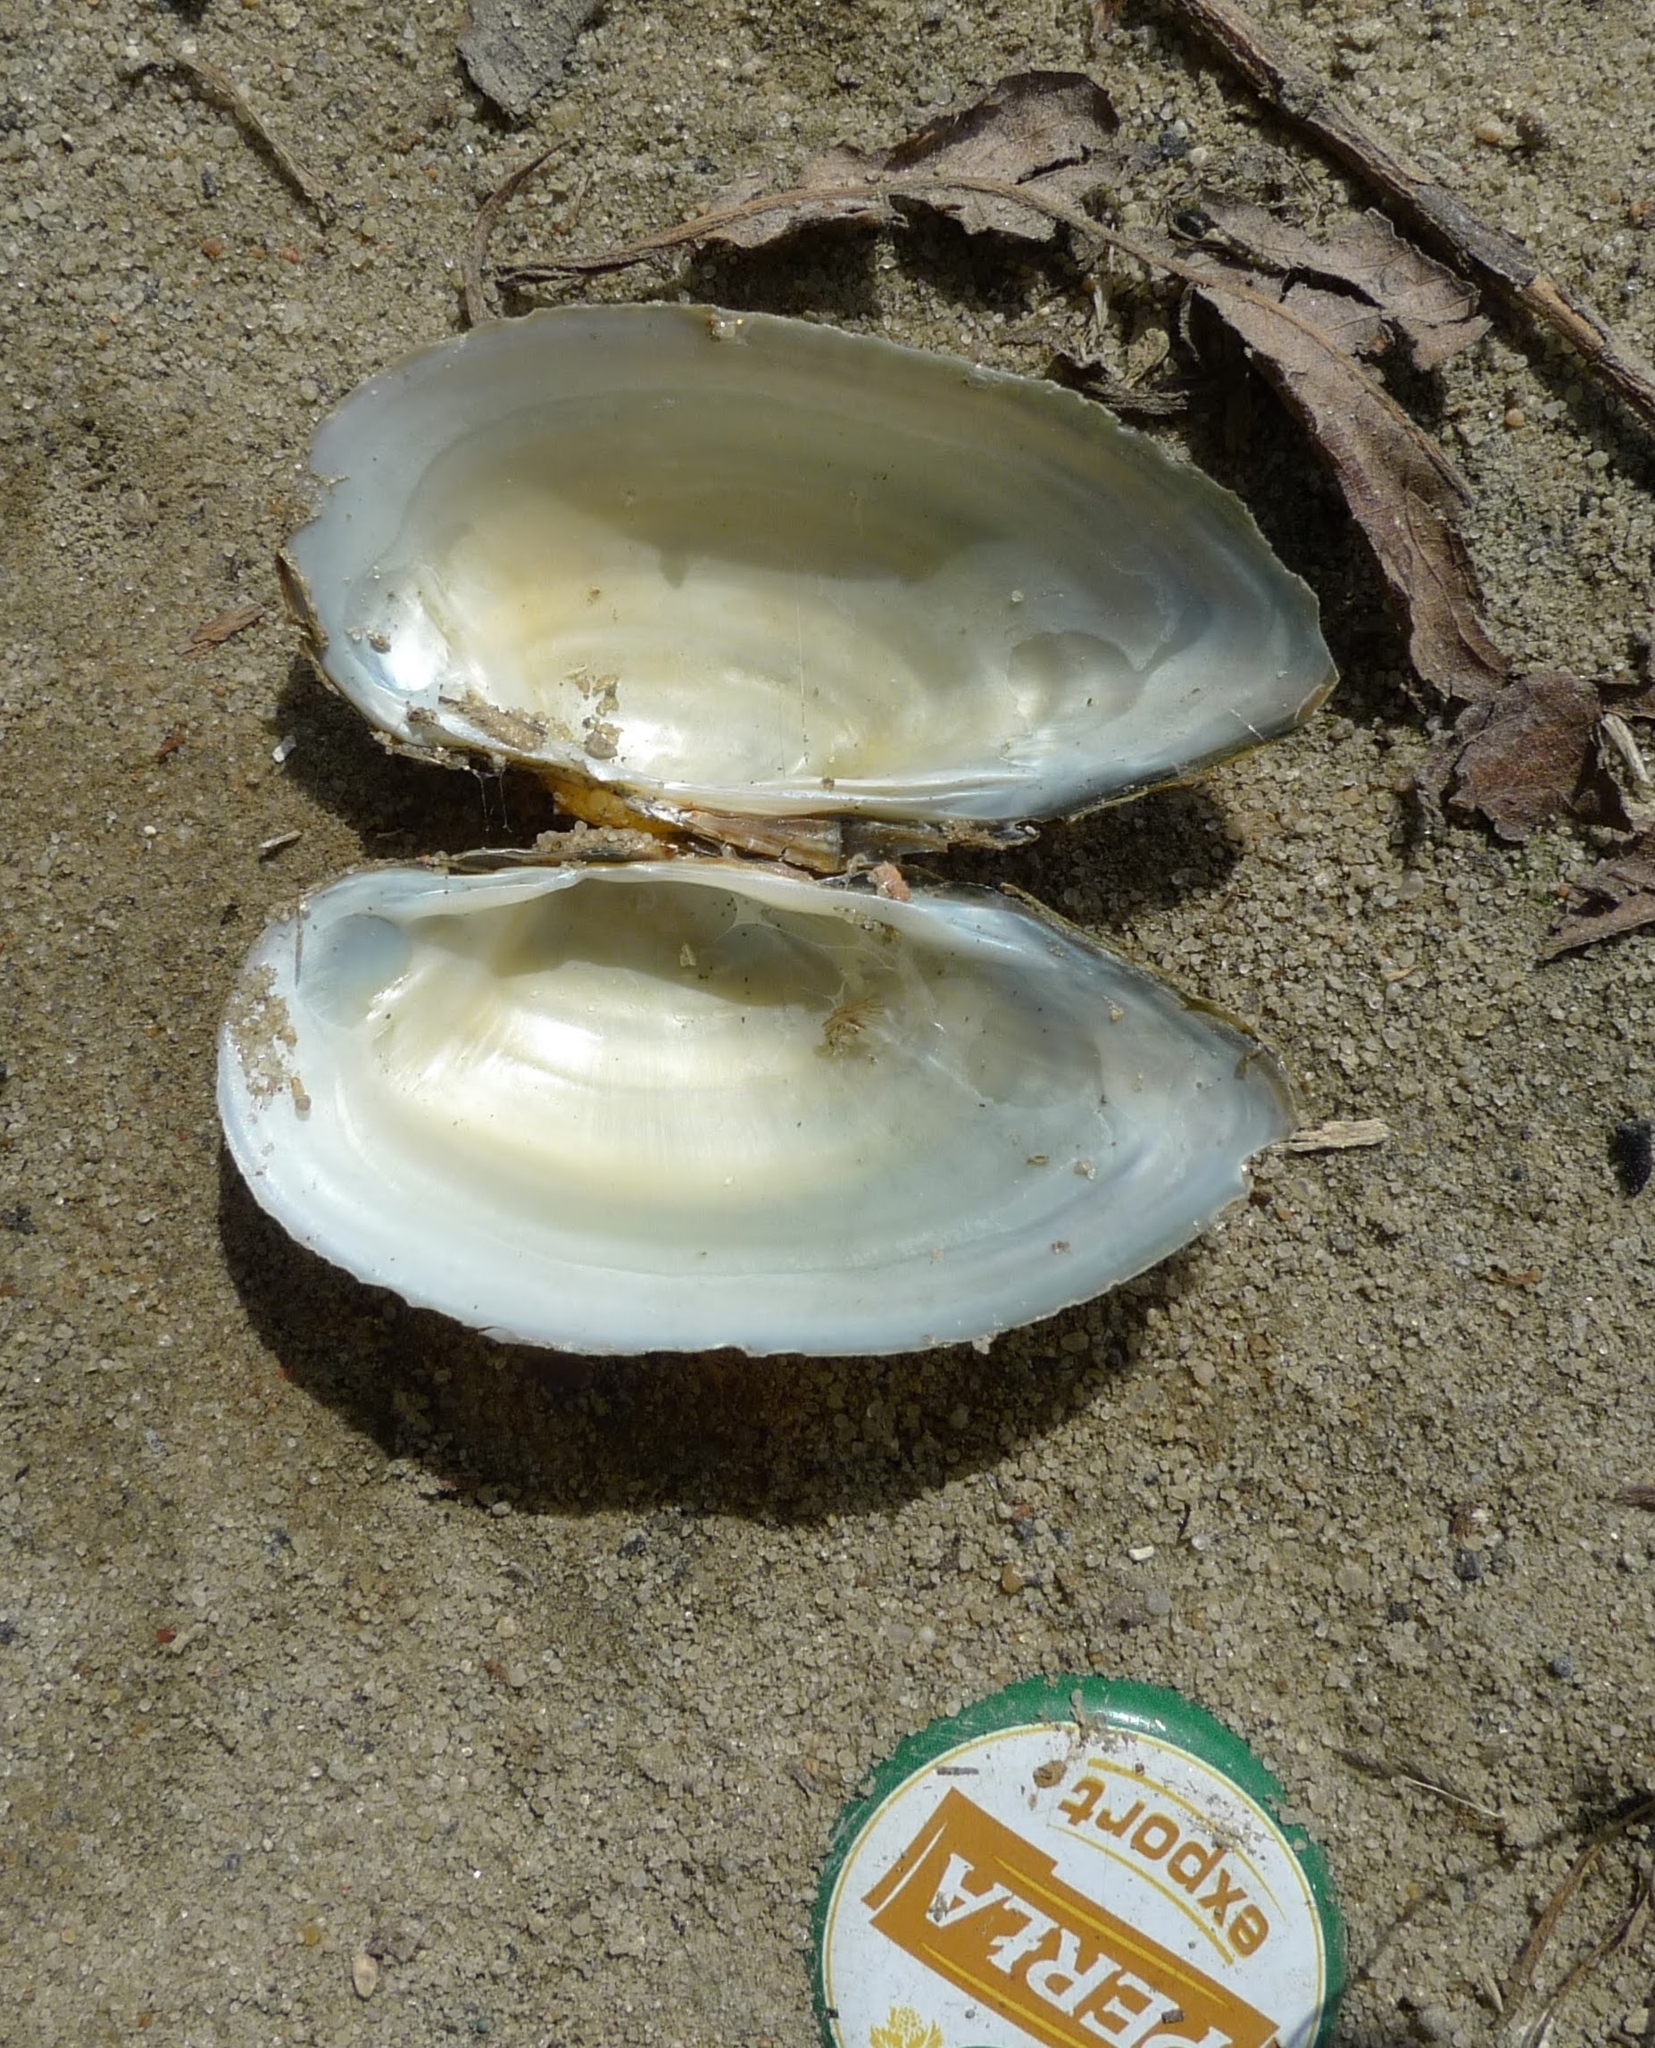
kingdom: Animalia
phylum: Mollusca
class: Bivalvia
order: Unionida
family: Unionidae
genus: Unio
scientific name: Unio tumidus
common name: Swollen river mussel
